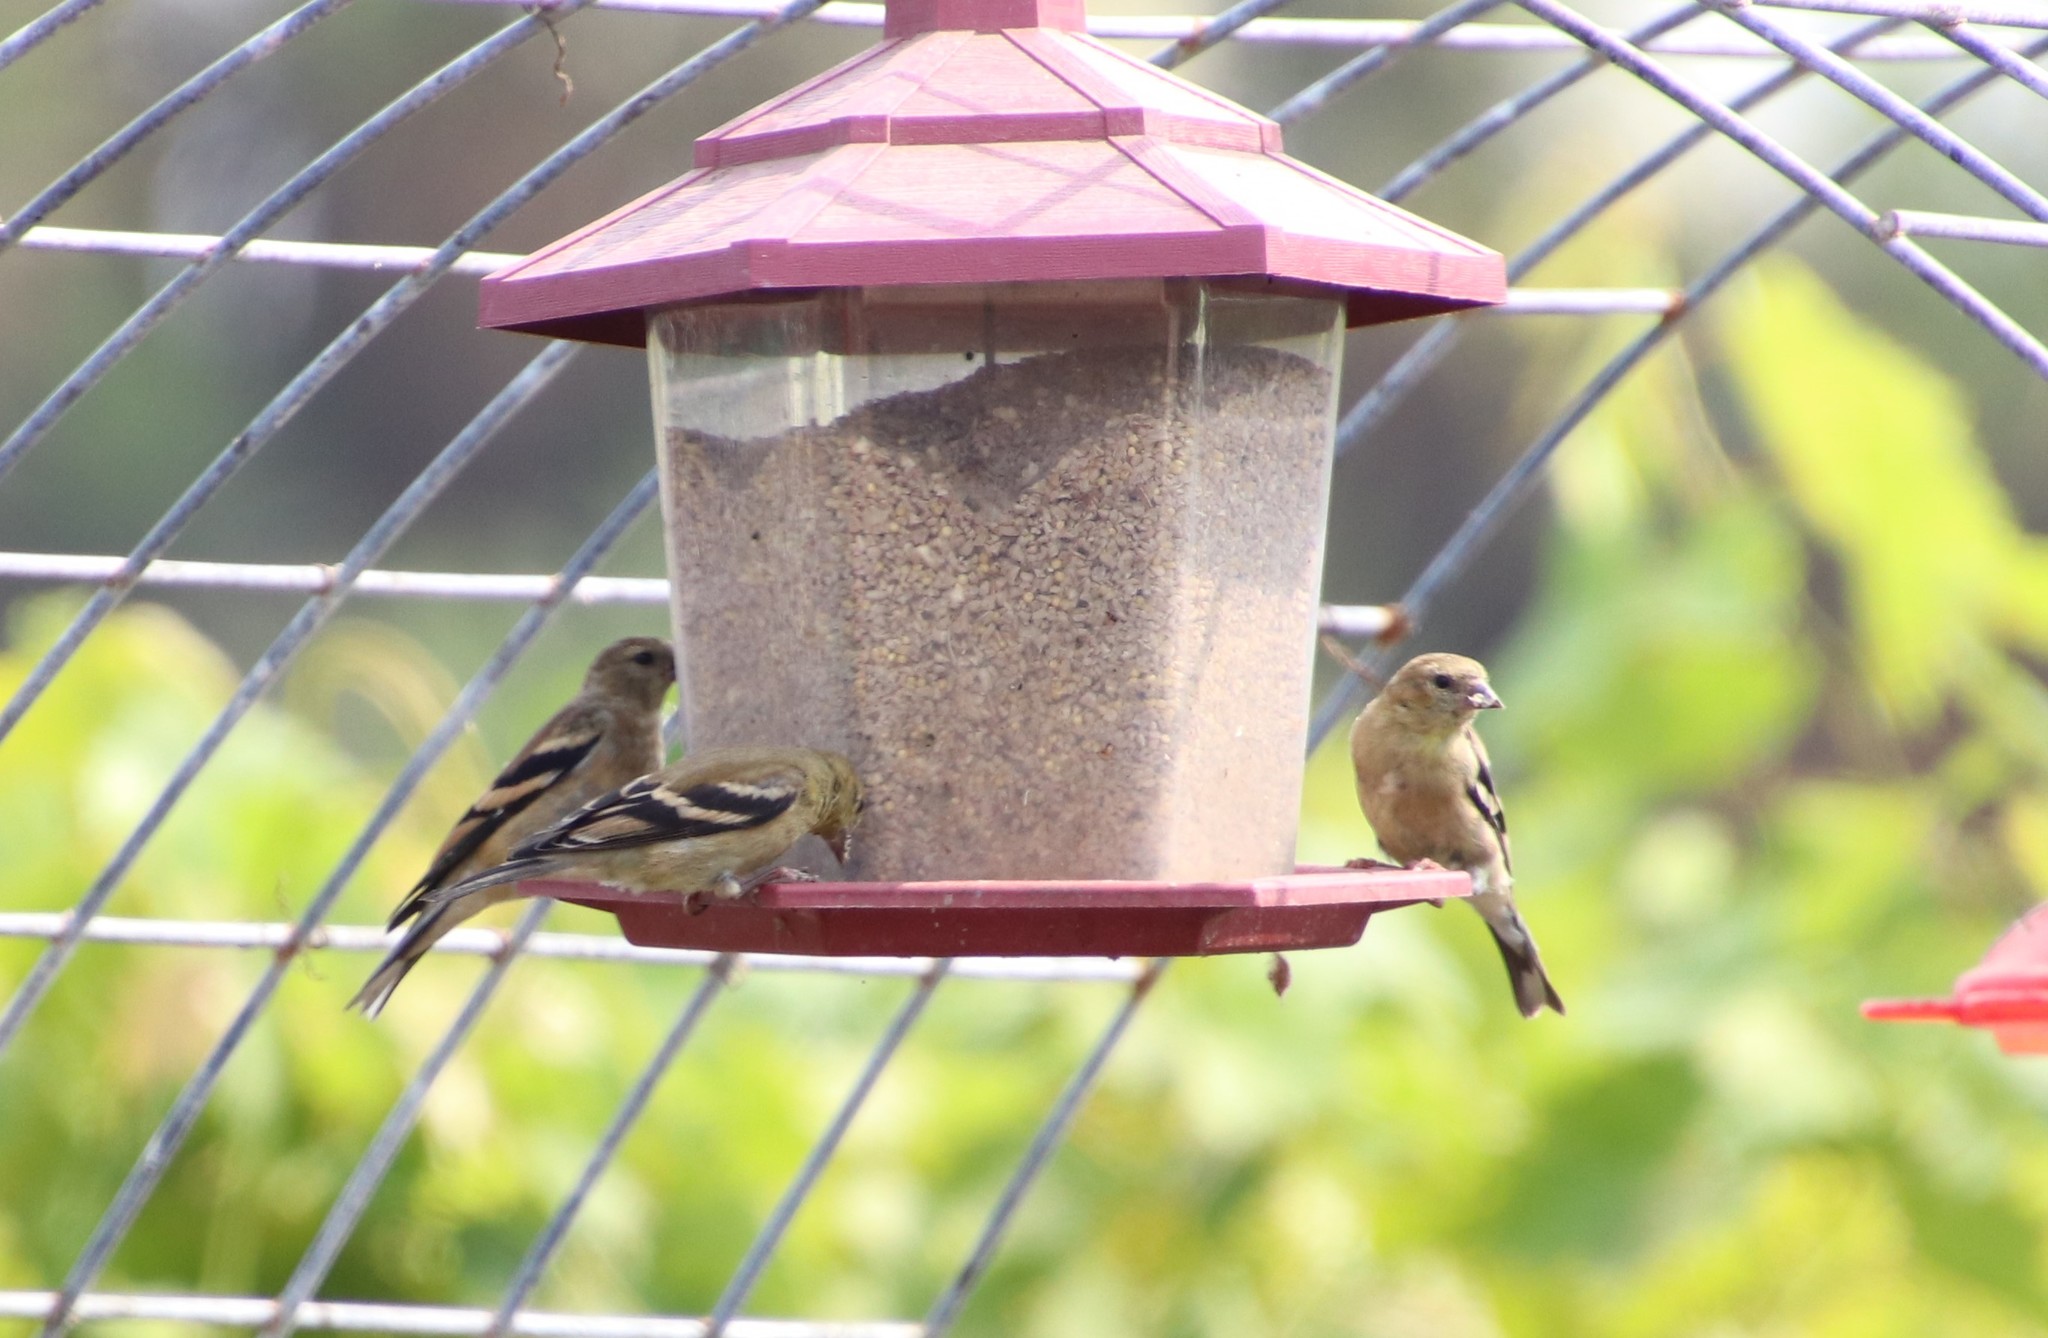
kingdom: Animalia
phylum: Chordata
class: Aves
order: Passeriformes
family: Fringillidae
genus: Spinus
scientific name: Spinus tristis
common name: American goldfinch
